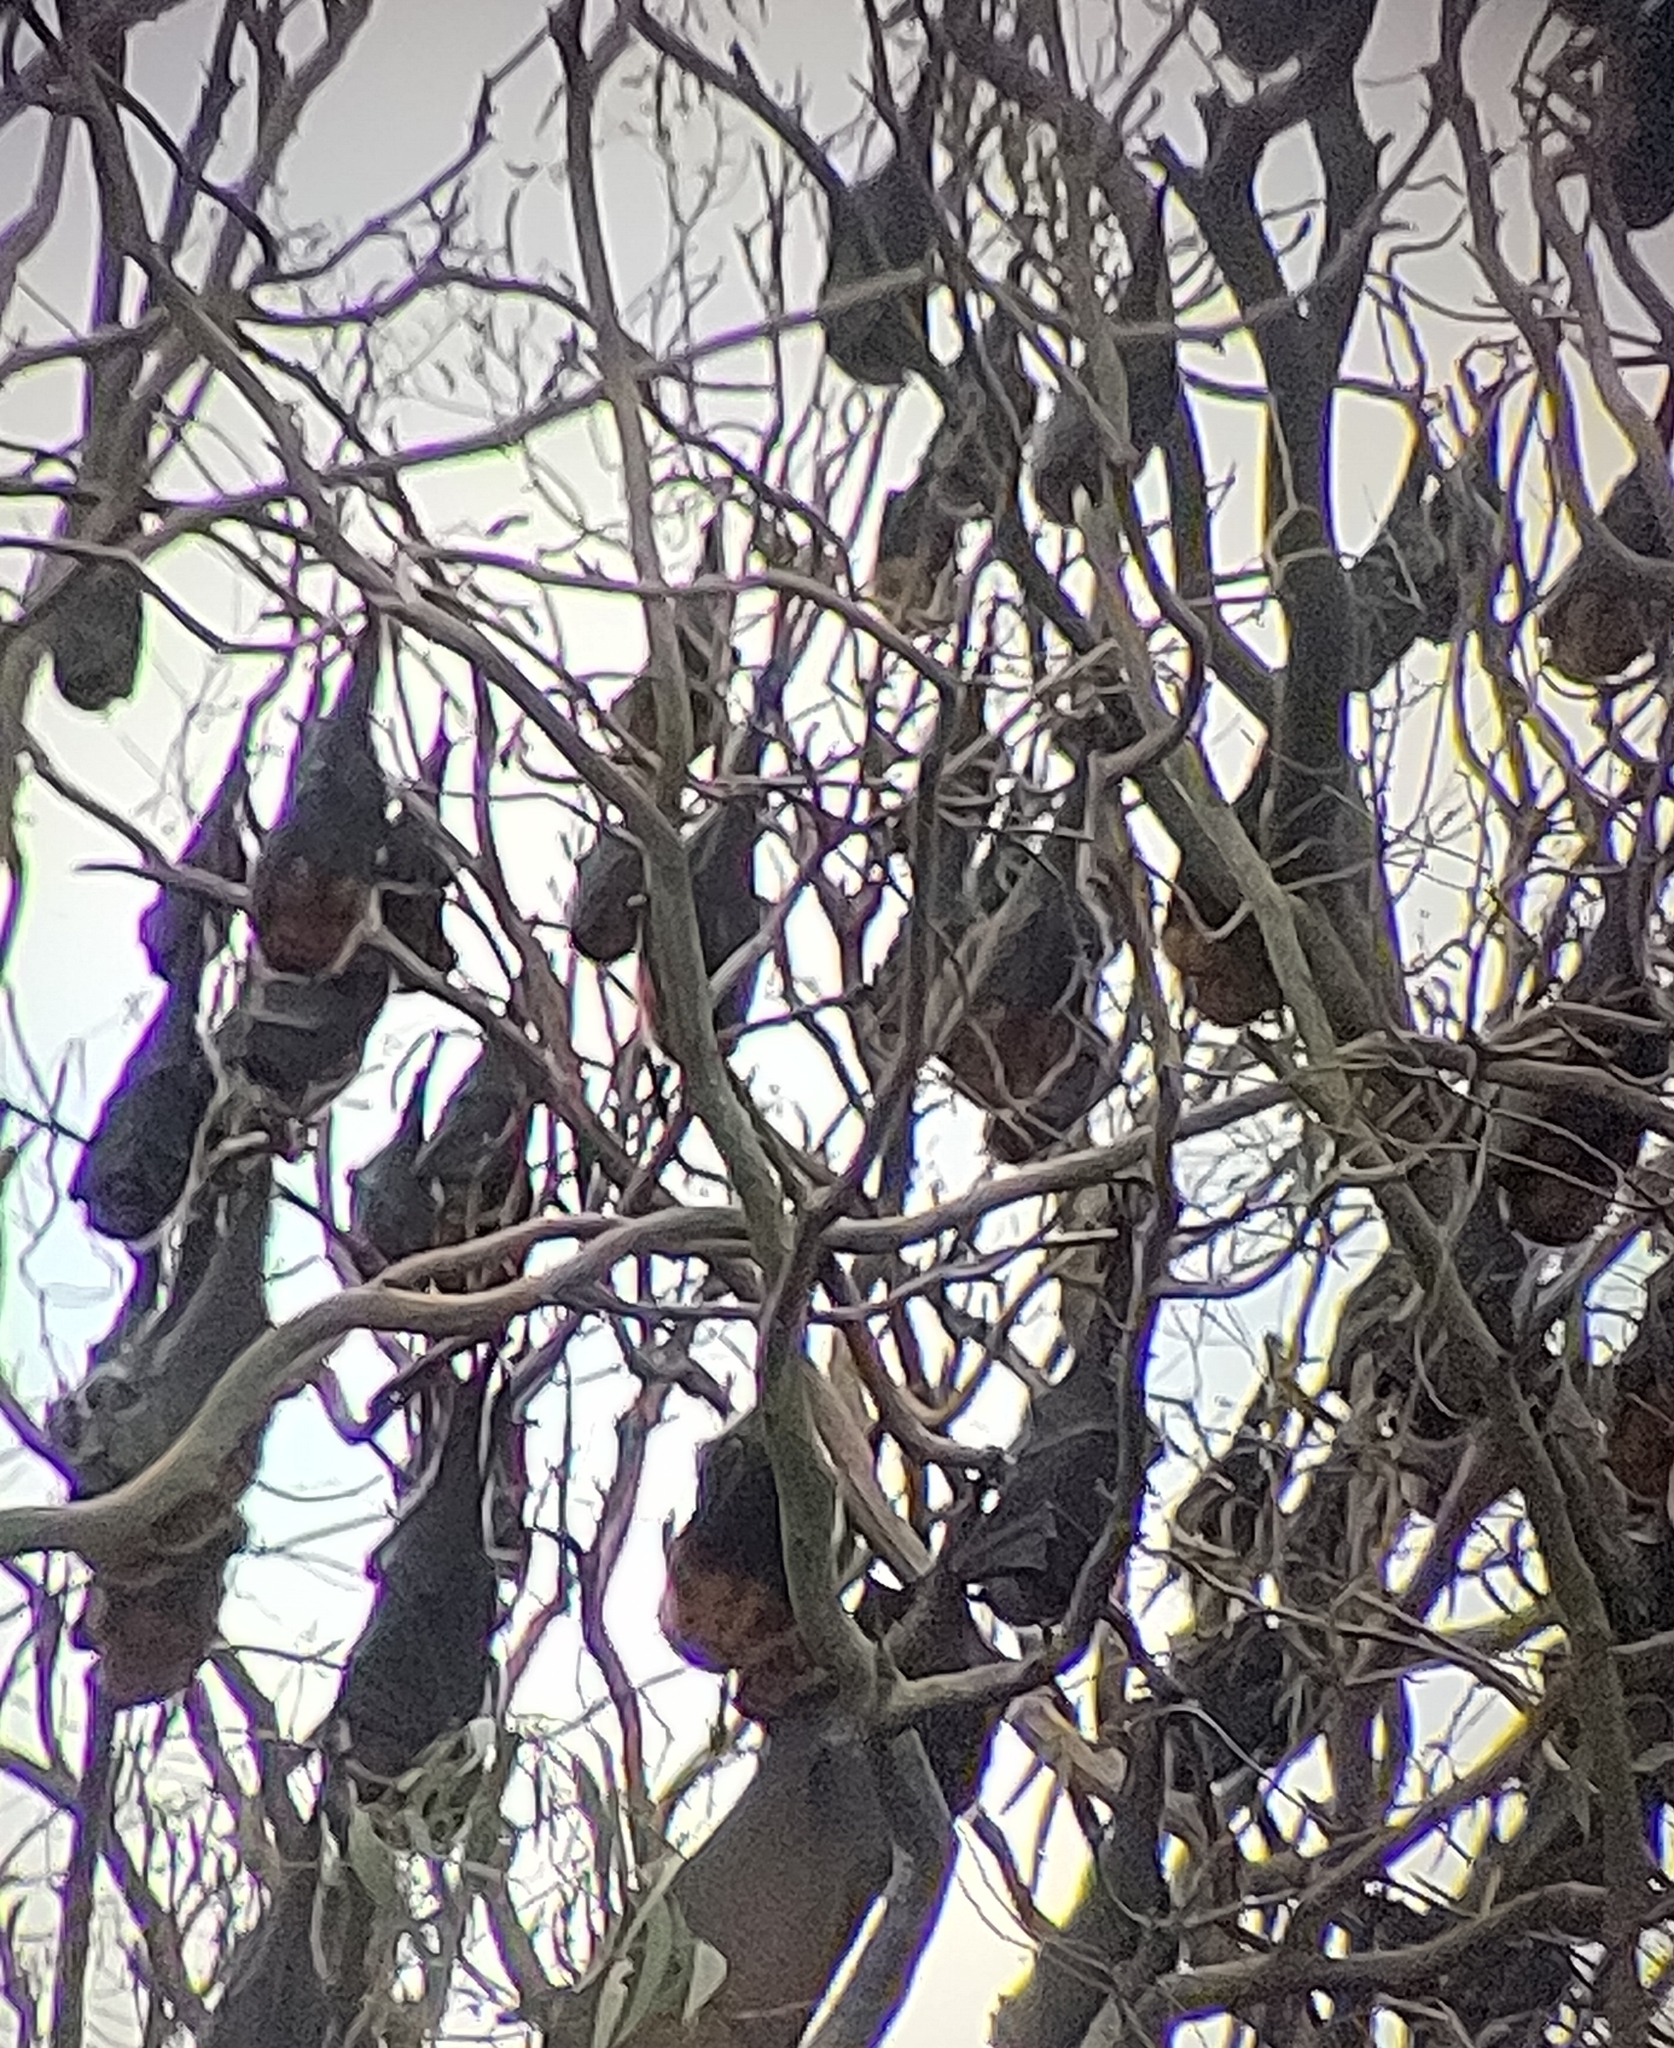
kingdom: Animalia
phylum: Chordata
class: Mammalia
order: Chiroptera
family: Pteropodidae
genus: Pteropus
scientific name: Pteropus poliocephalus
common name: Gray-headed flying fox
